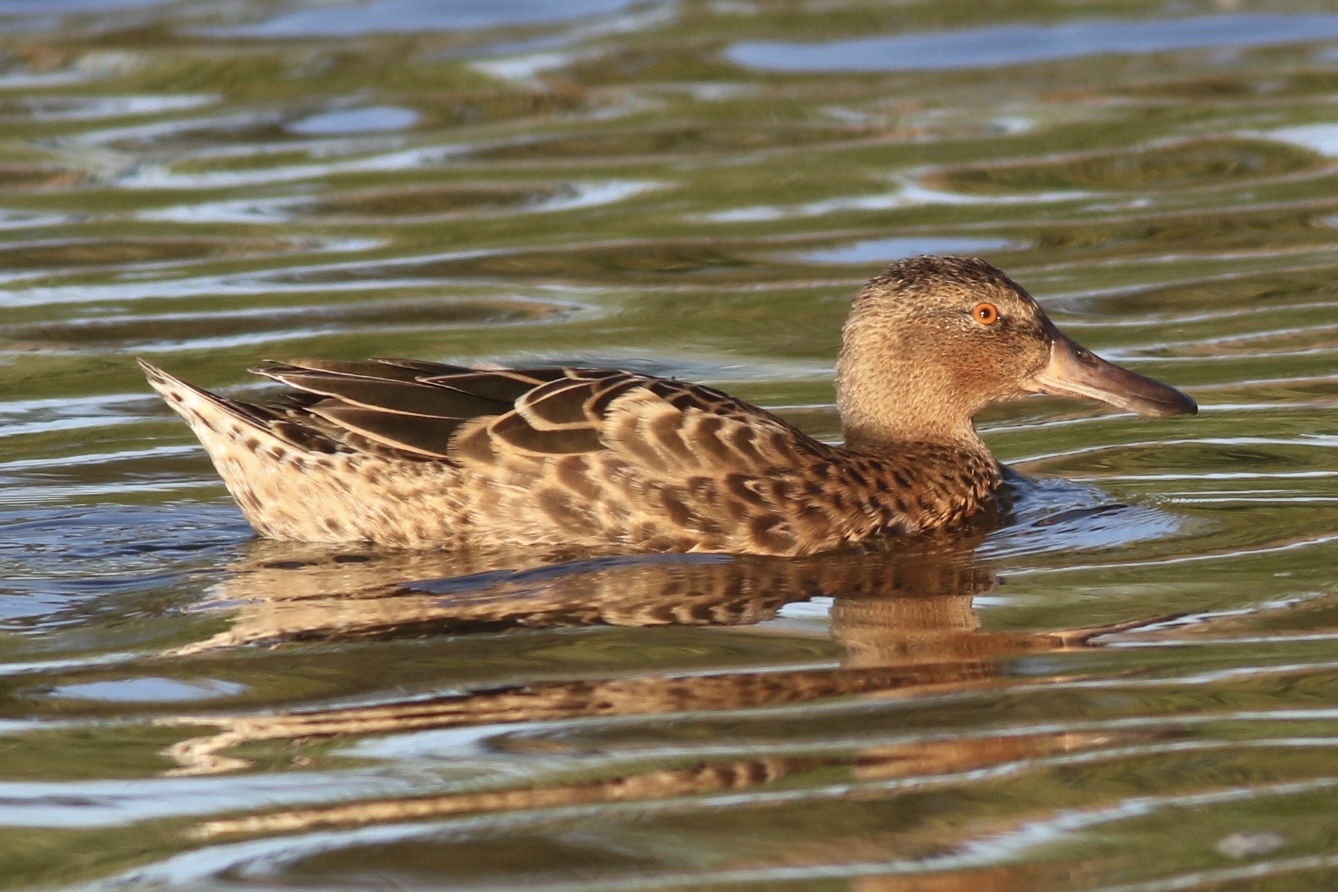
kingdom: Animalia
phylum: Chordata
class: Aves
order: Anseriformes
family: Anatidae
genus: Spatula
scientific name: Spatula cyanoptera
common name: Cinnamon teal
